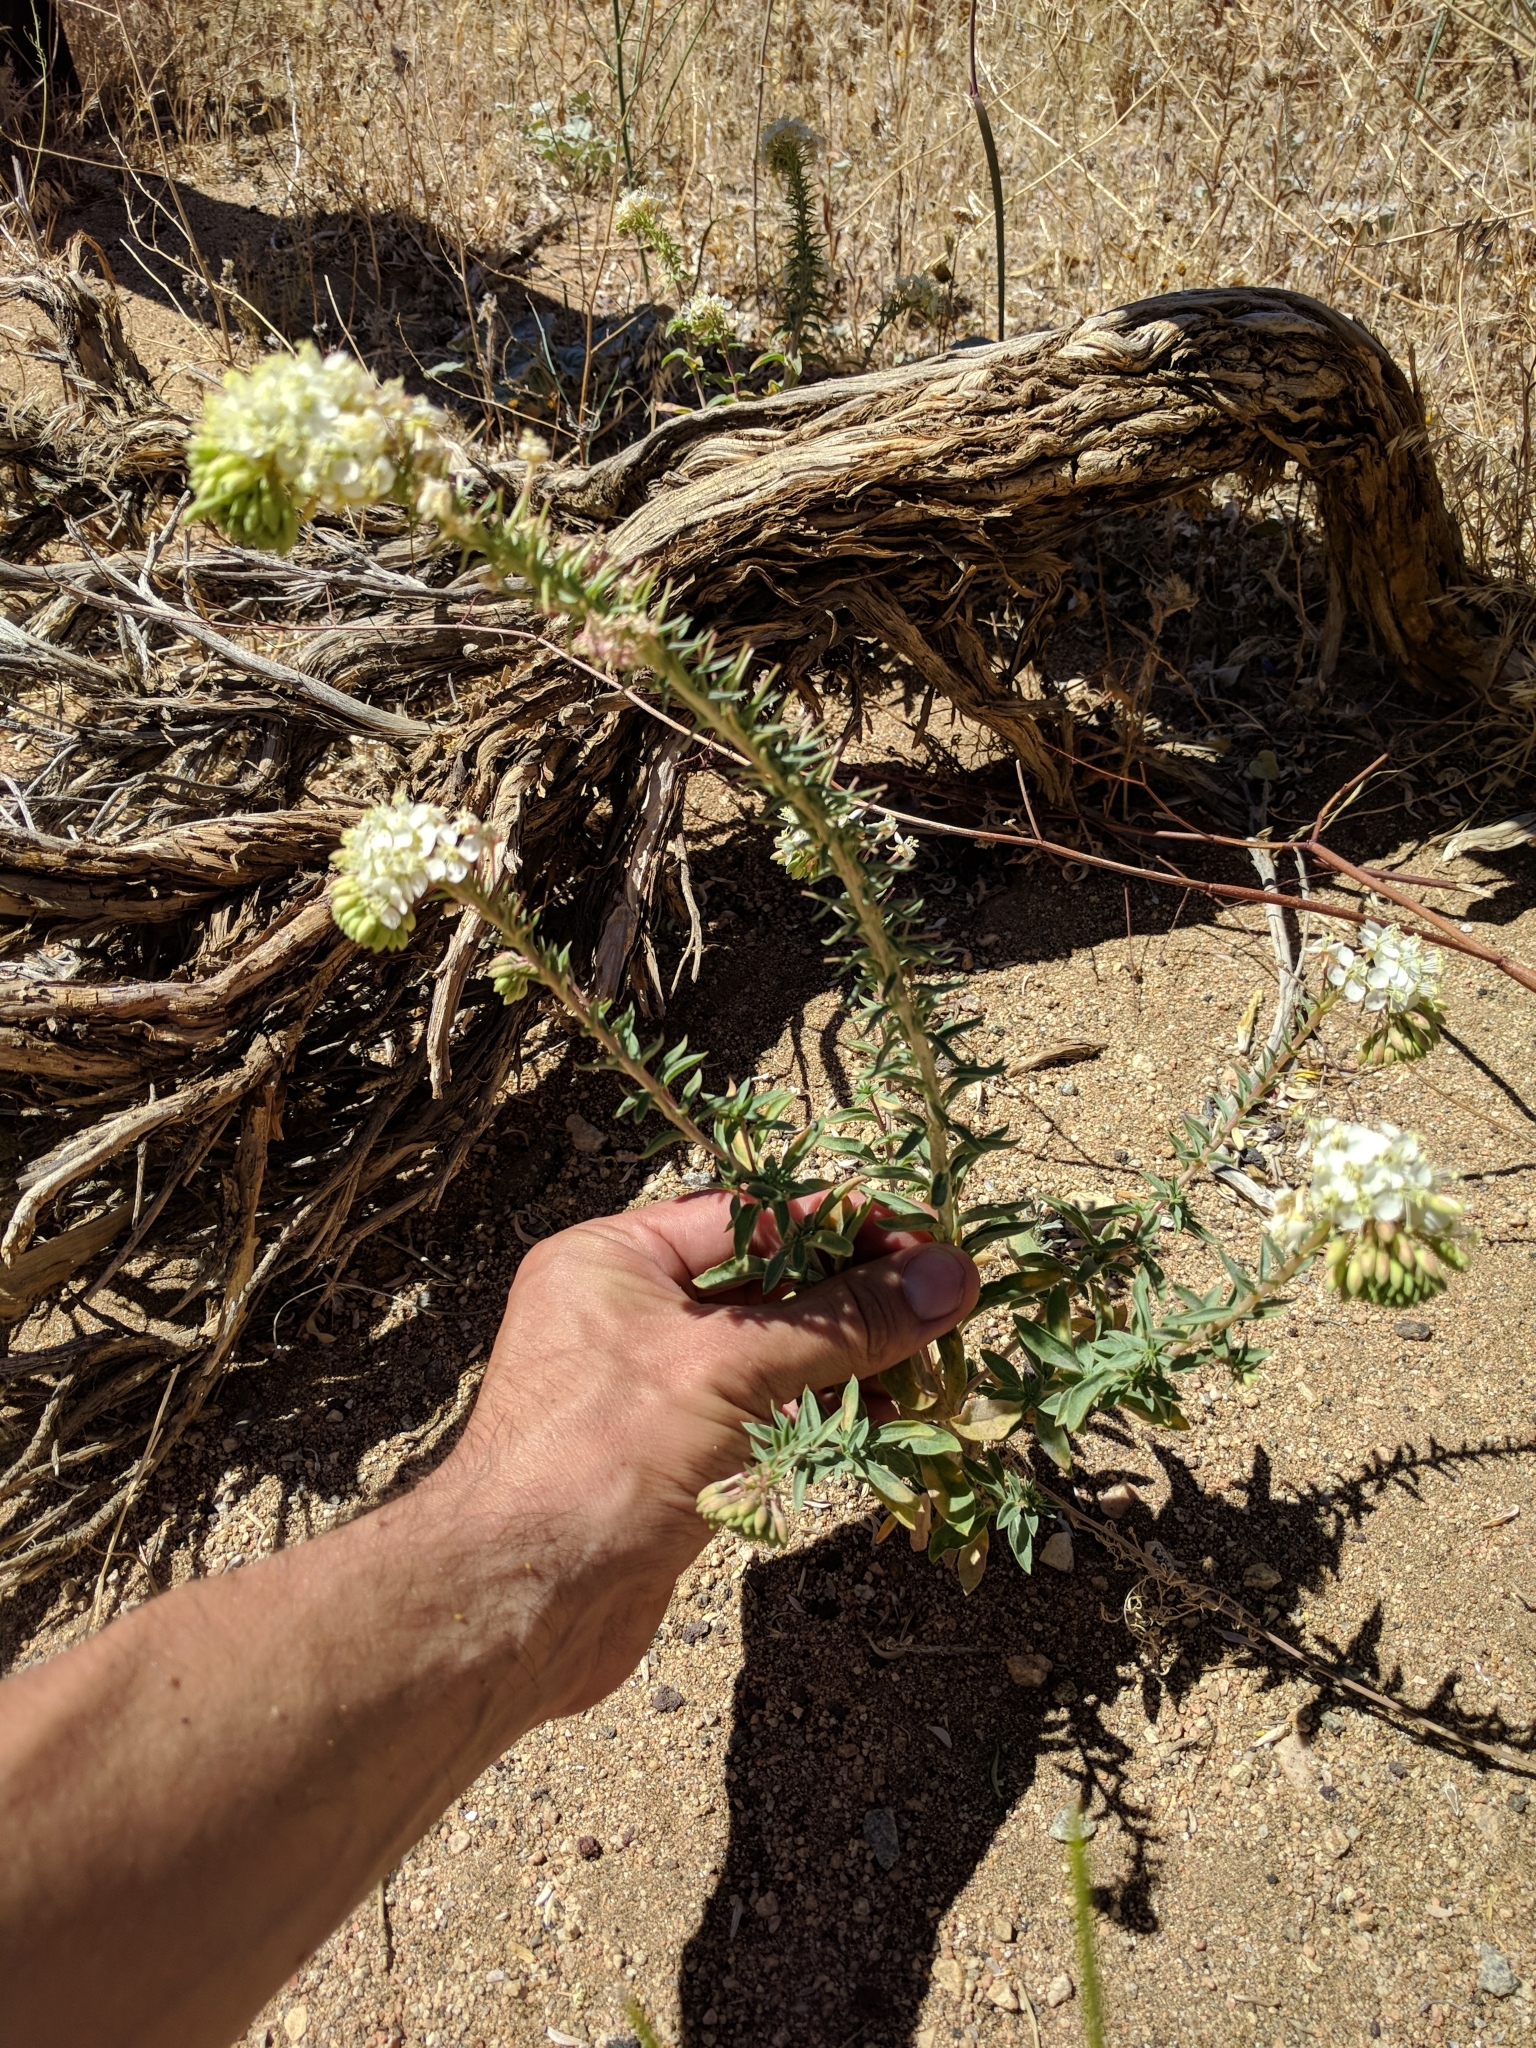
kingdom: Plantae
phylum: Tracheophyta
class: Magnoliopsida
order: Myrtales
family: Onagraceae
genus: Eremothera
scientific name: Eremothera boothii
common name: Booth's evening primrose
